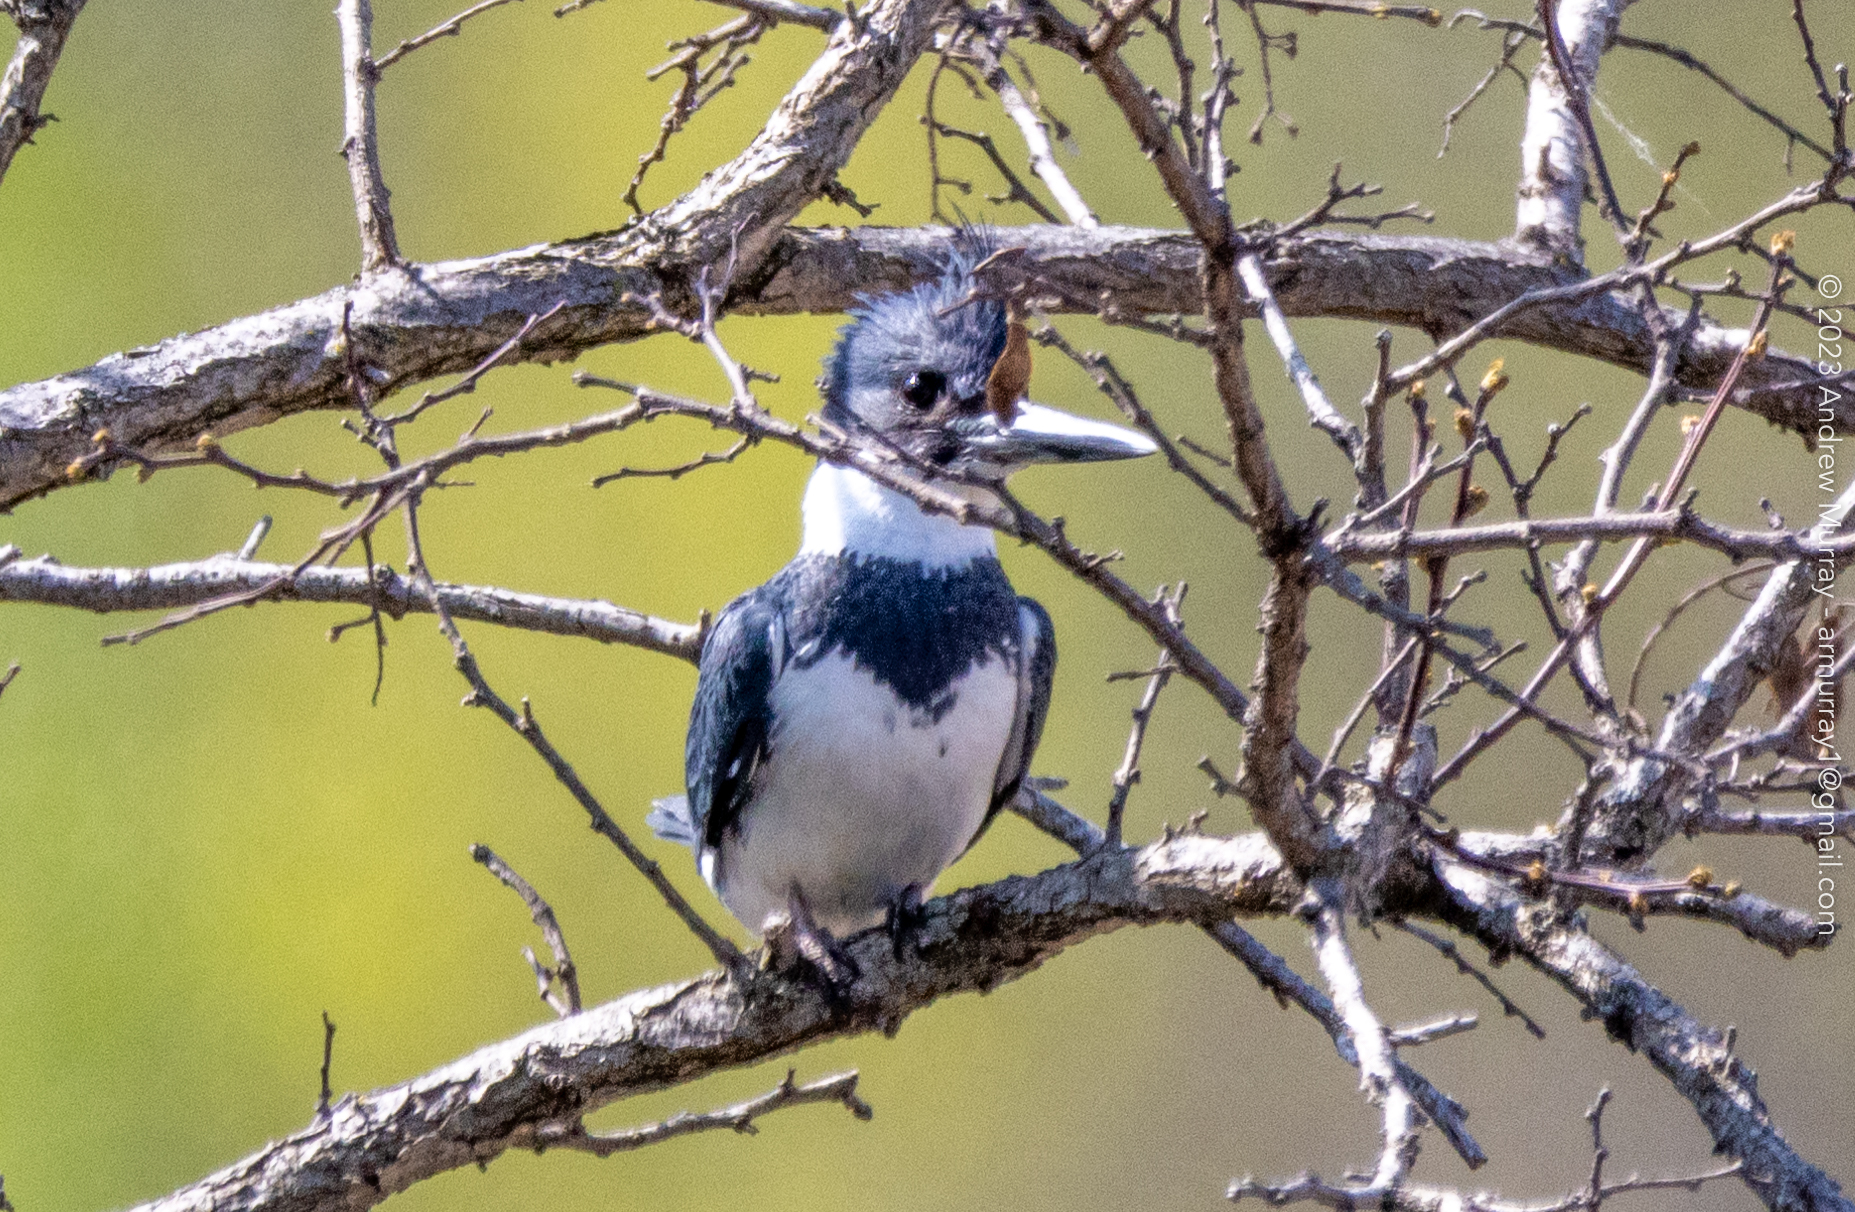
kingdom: Animalia
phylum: Chordata
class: Aves
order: Coraciiformes
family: Alcedinidae
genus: Megaceryle
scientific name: Megaceryle alcyon
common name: Belted kingfisher
